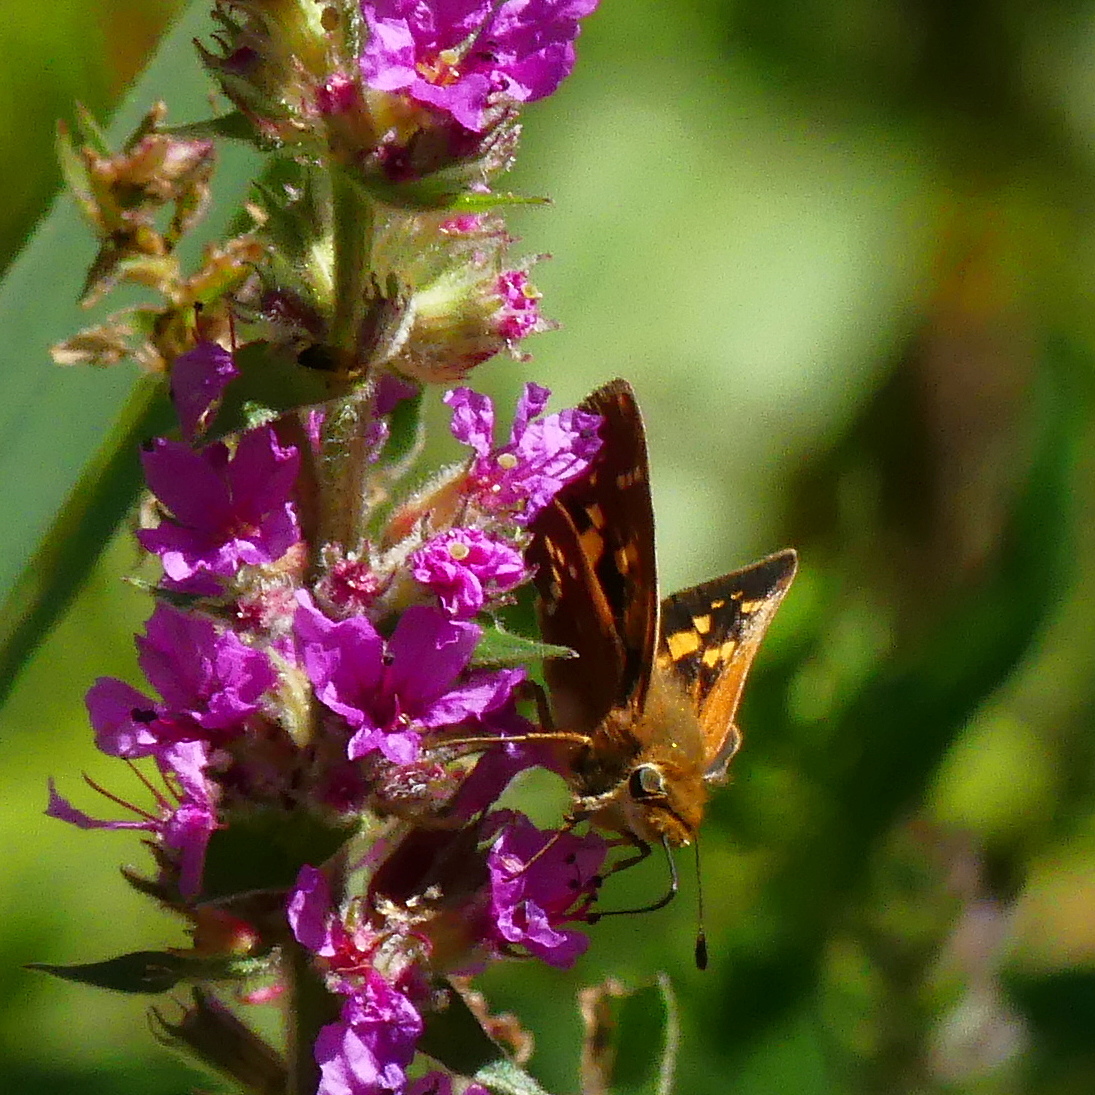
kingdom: Animalia
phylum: Arthropoda
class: Insecta
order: Lepidoptera
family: Hesperiidae
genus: Hesperia
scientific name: Hesperia leonardus
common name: Leonard's skipper
